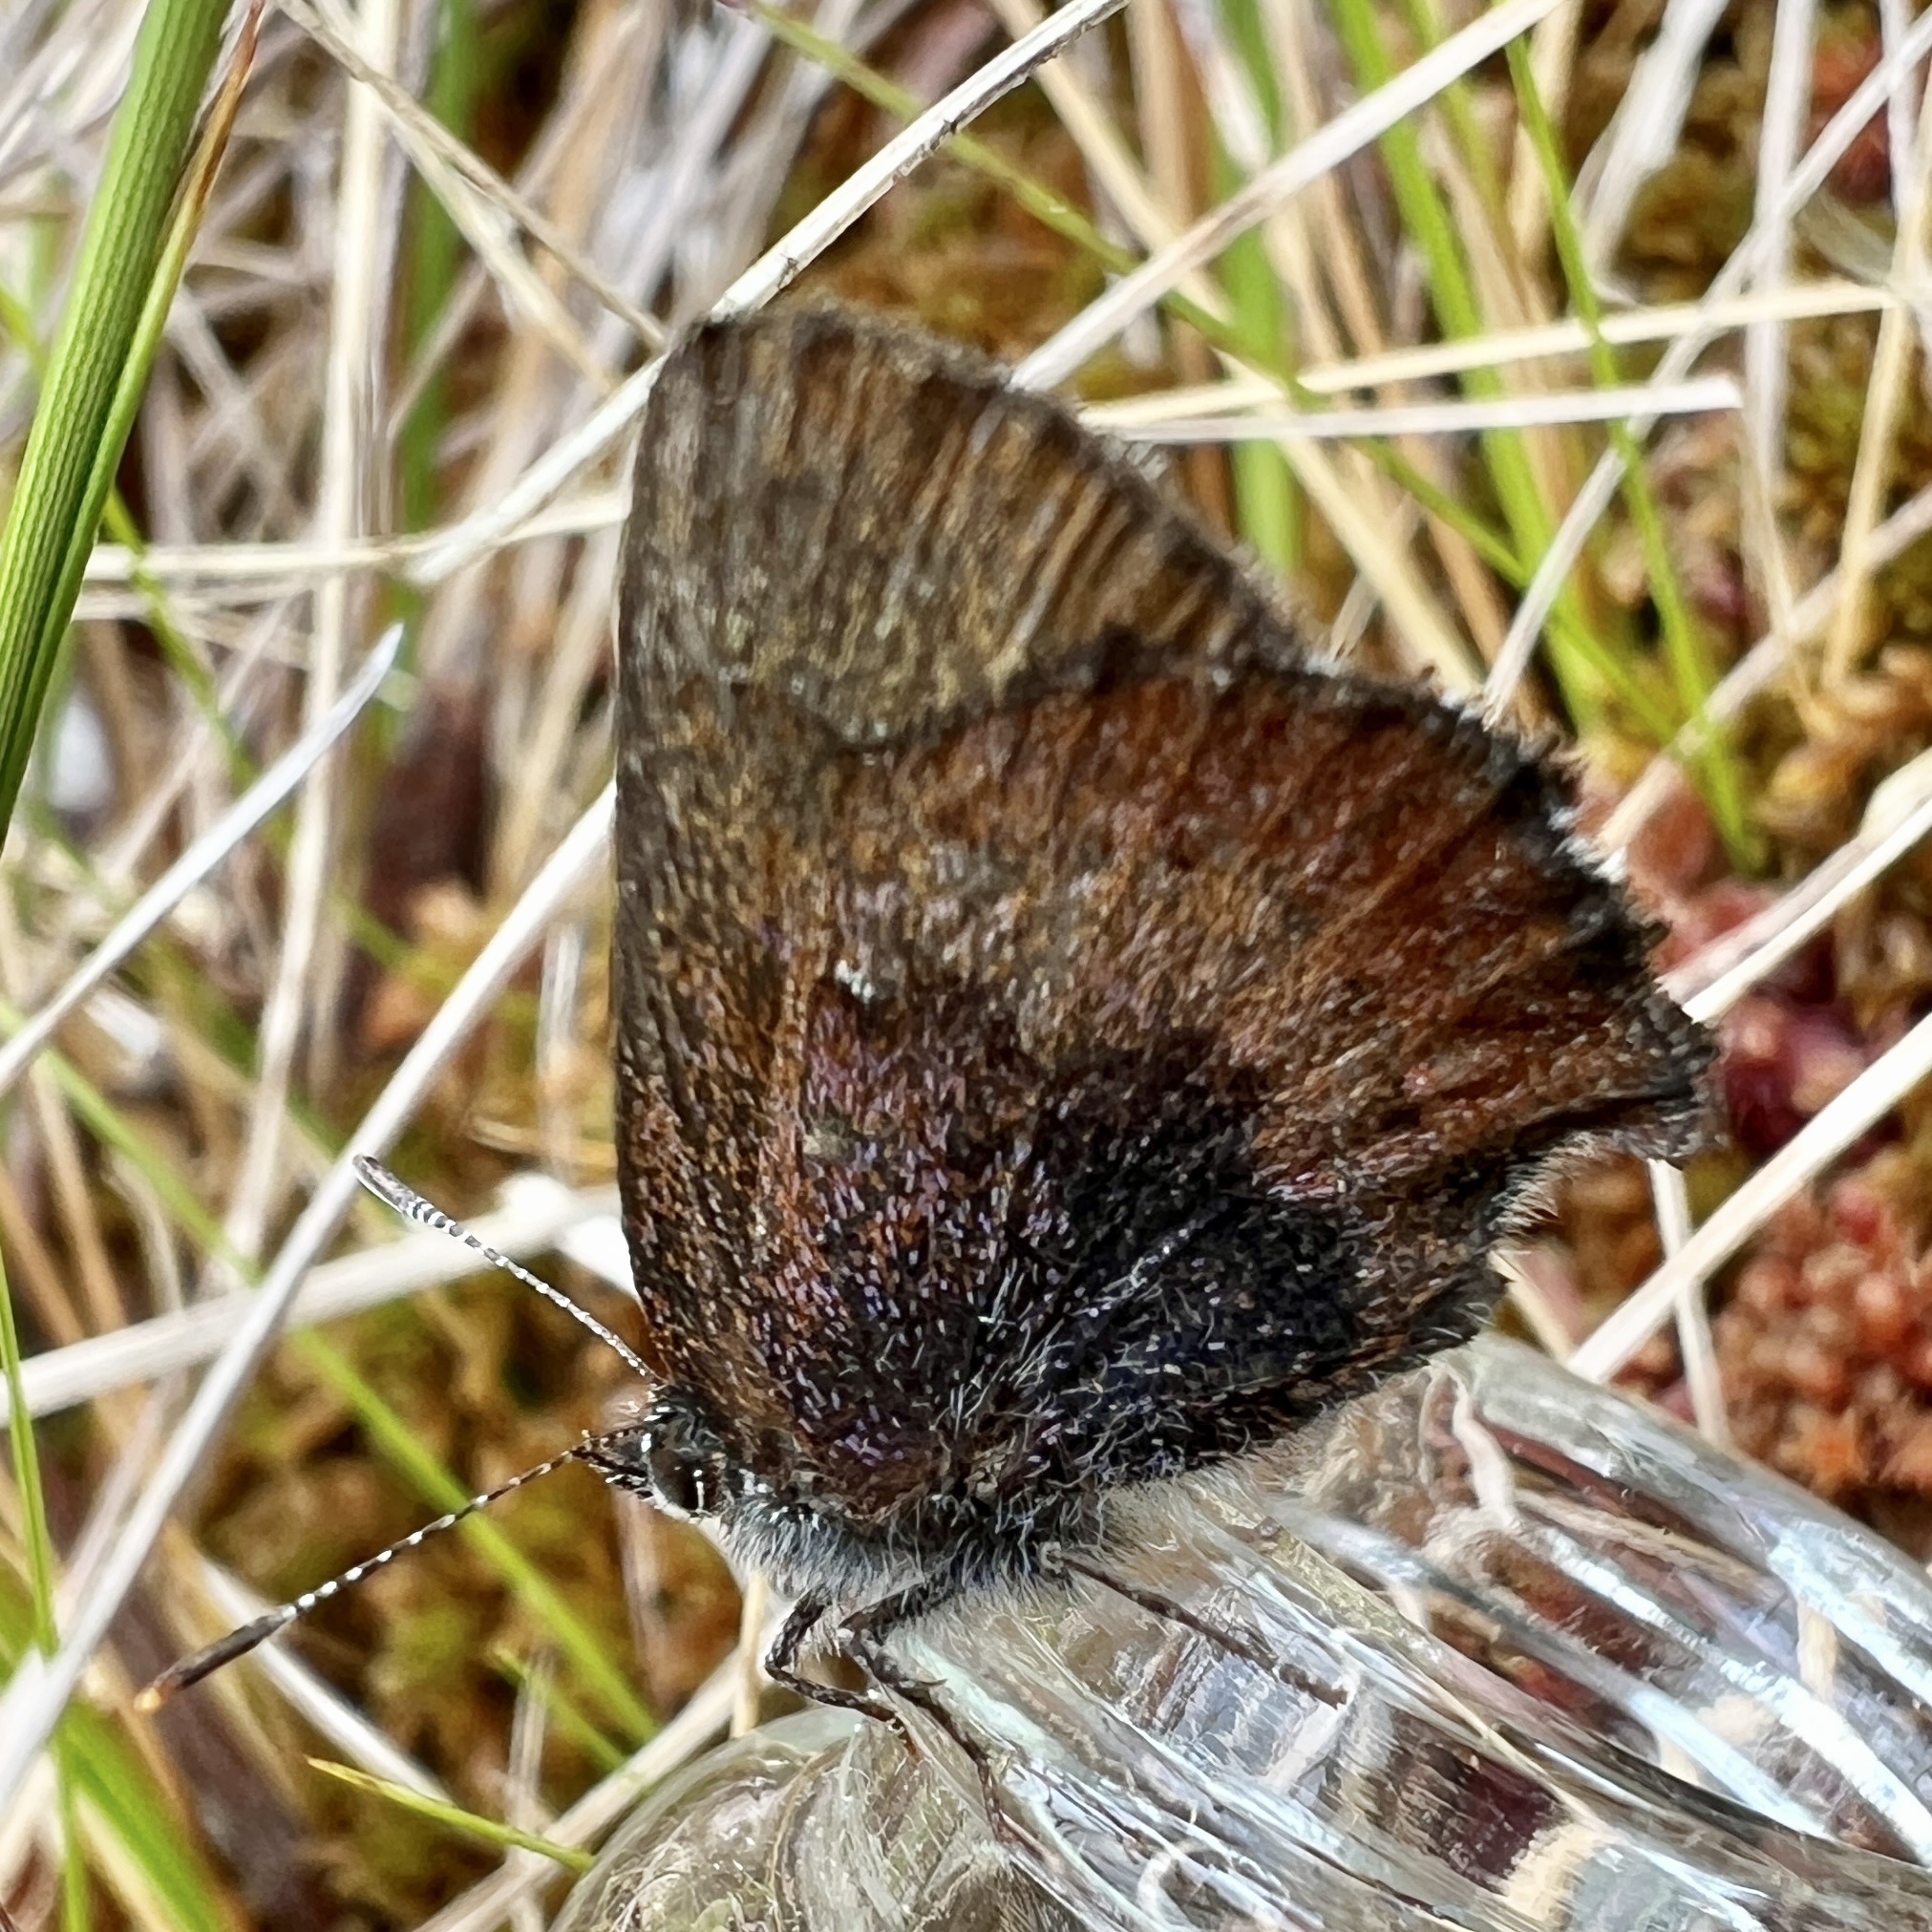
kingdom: Animalia
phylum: Arthropoda
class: Insecta
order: Lepidoptera
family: Lycaenidae
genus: Incisalia
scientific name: Incisalia irioides
